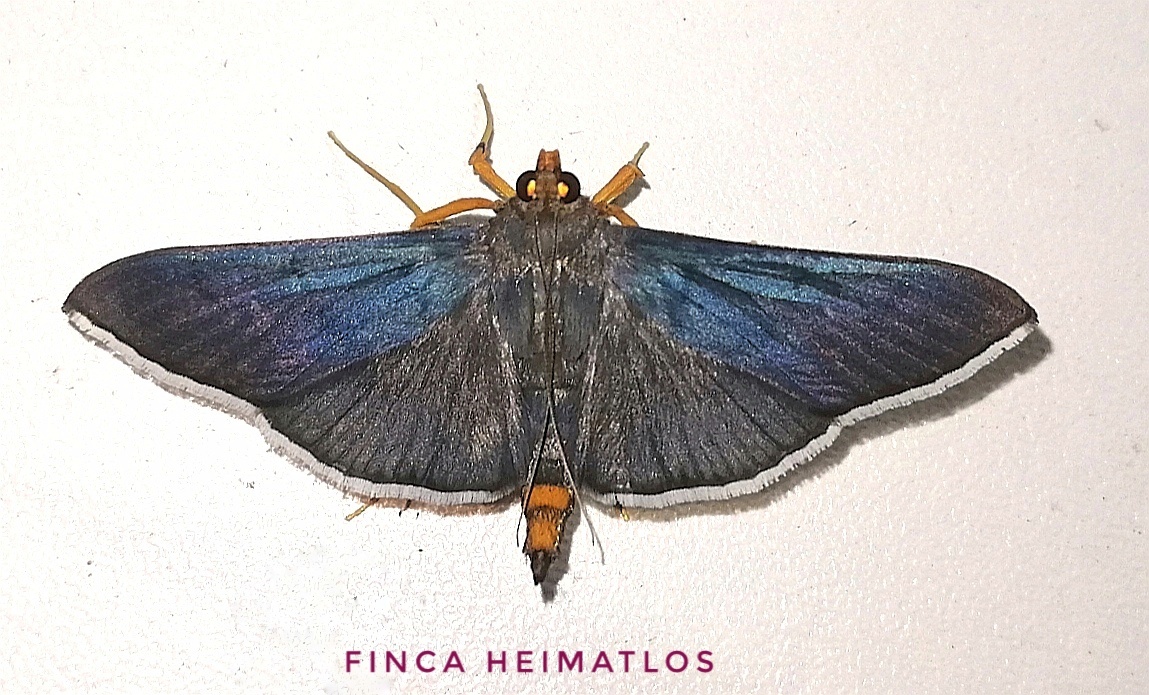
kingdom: Animalia
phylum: Arthropoda
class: Insecta
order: Lepidoptera
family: Crambidae
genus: Omiodes
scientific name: Omiodes fulvicauda
